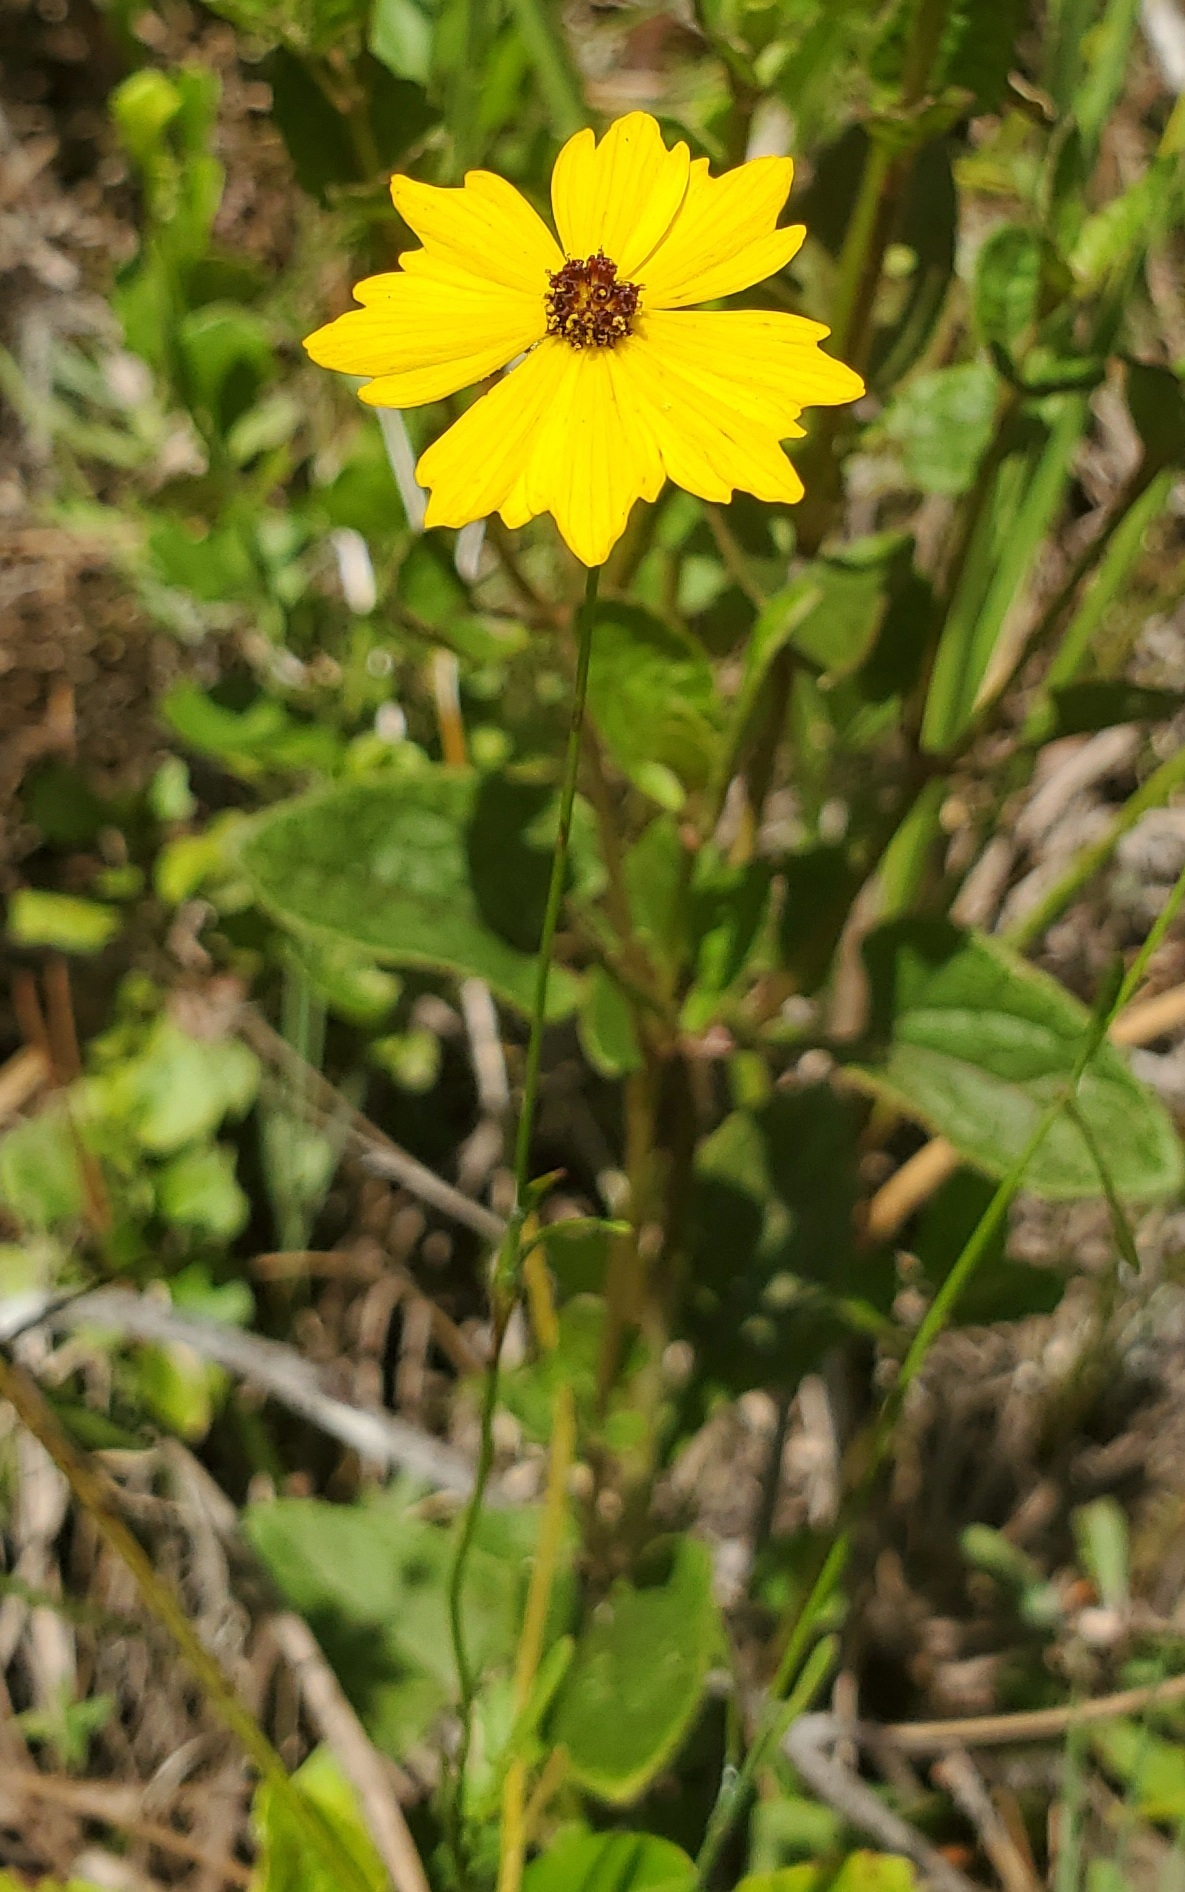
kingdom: Plantae
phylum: Tracheophyta
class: Magnoliopsida
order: Asterales
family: Asteraceae
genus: Coreopsis
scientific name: Coreopsis leavenworthii
